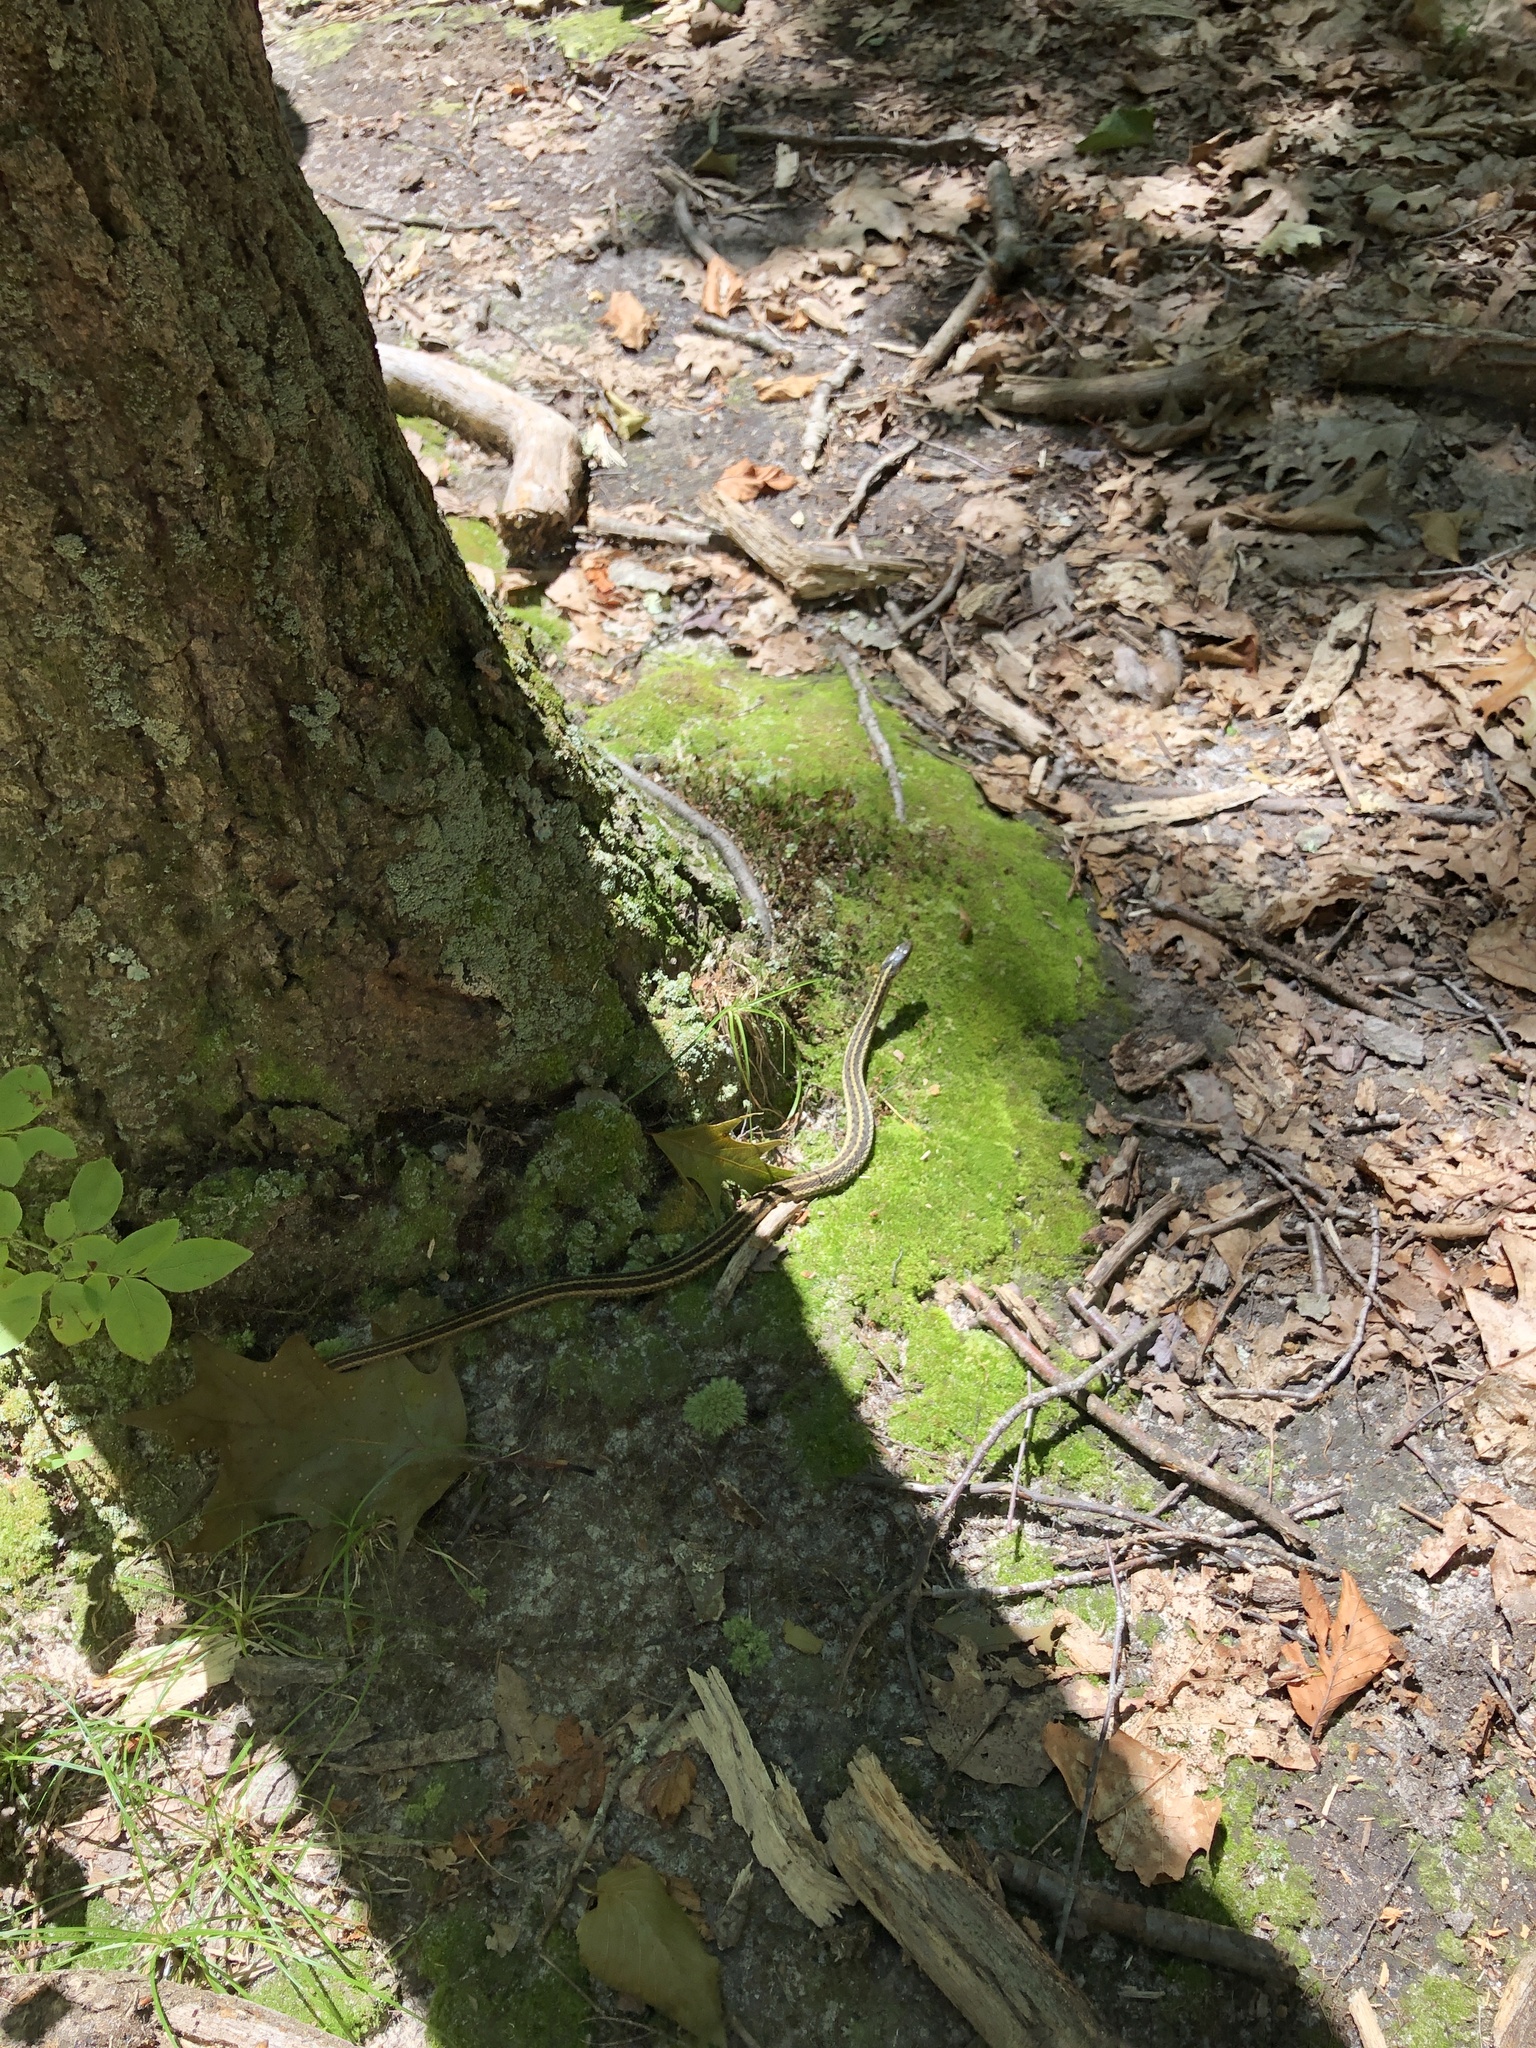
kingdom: Animalia
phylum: Chordata
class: Squamata
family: Colubridae
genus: Thamnophis
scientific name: Thamnophis sirtalis
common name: Common garter snake
